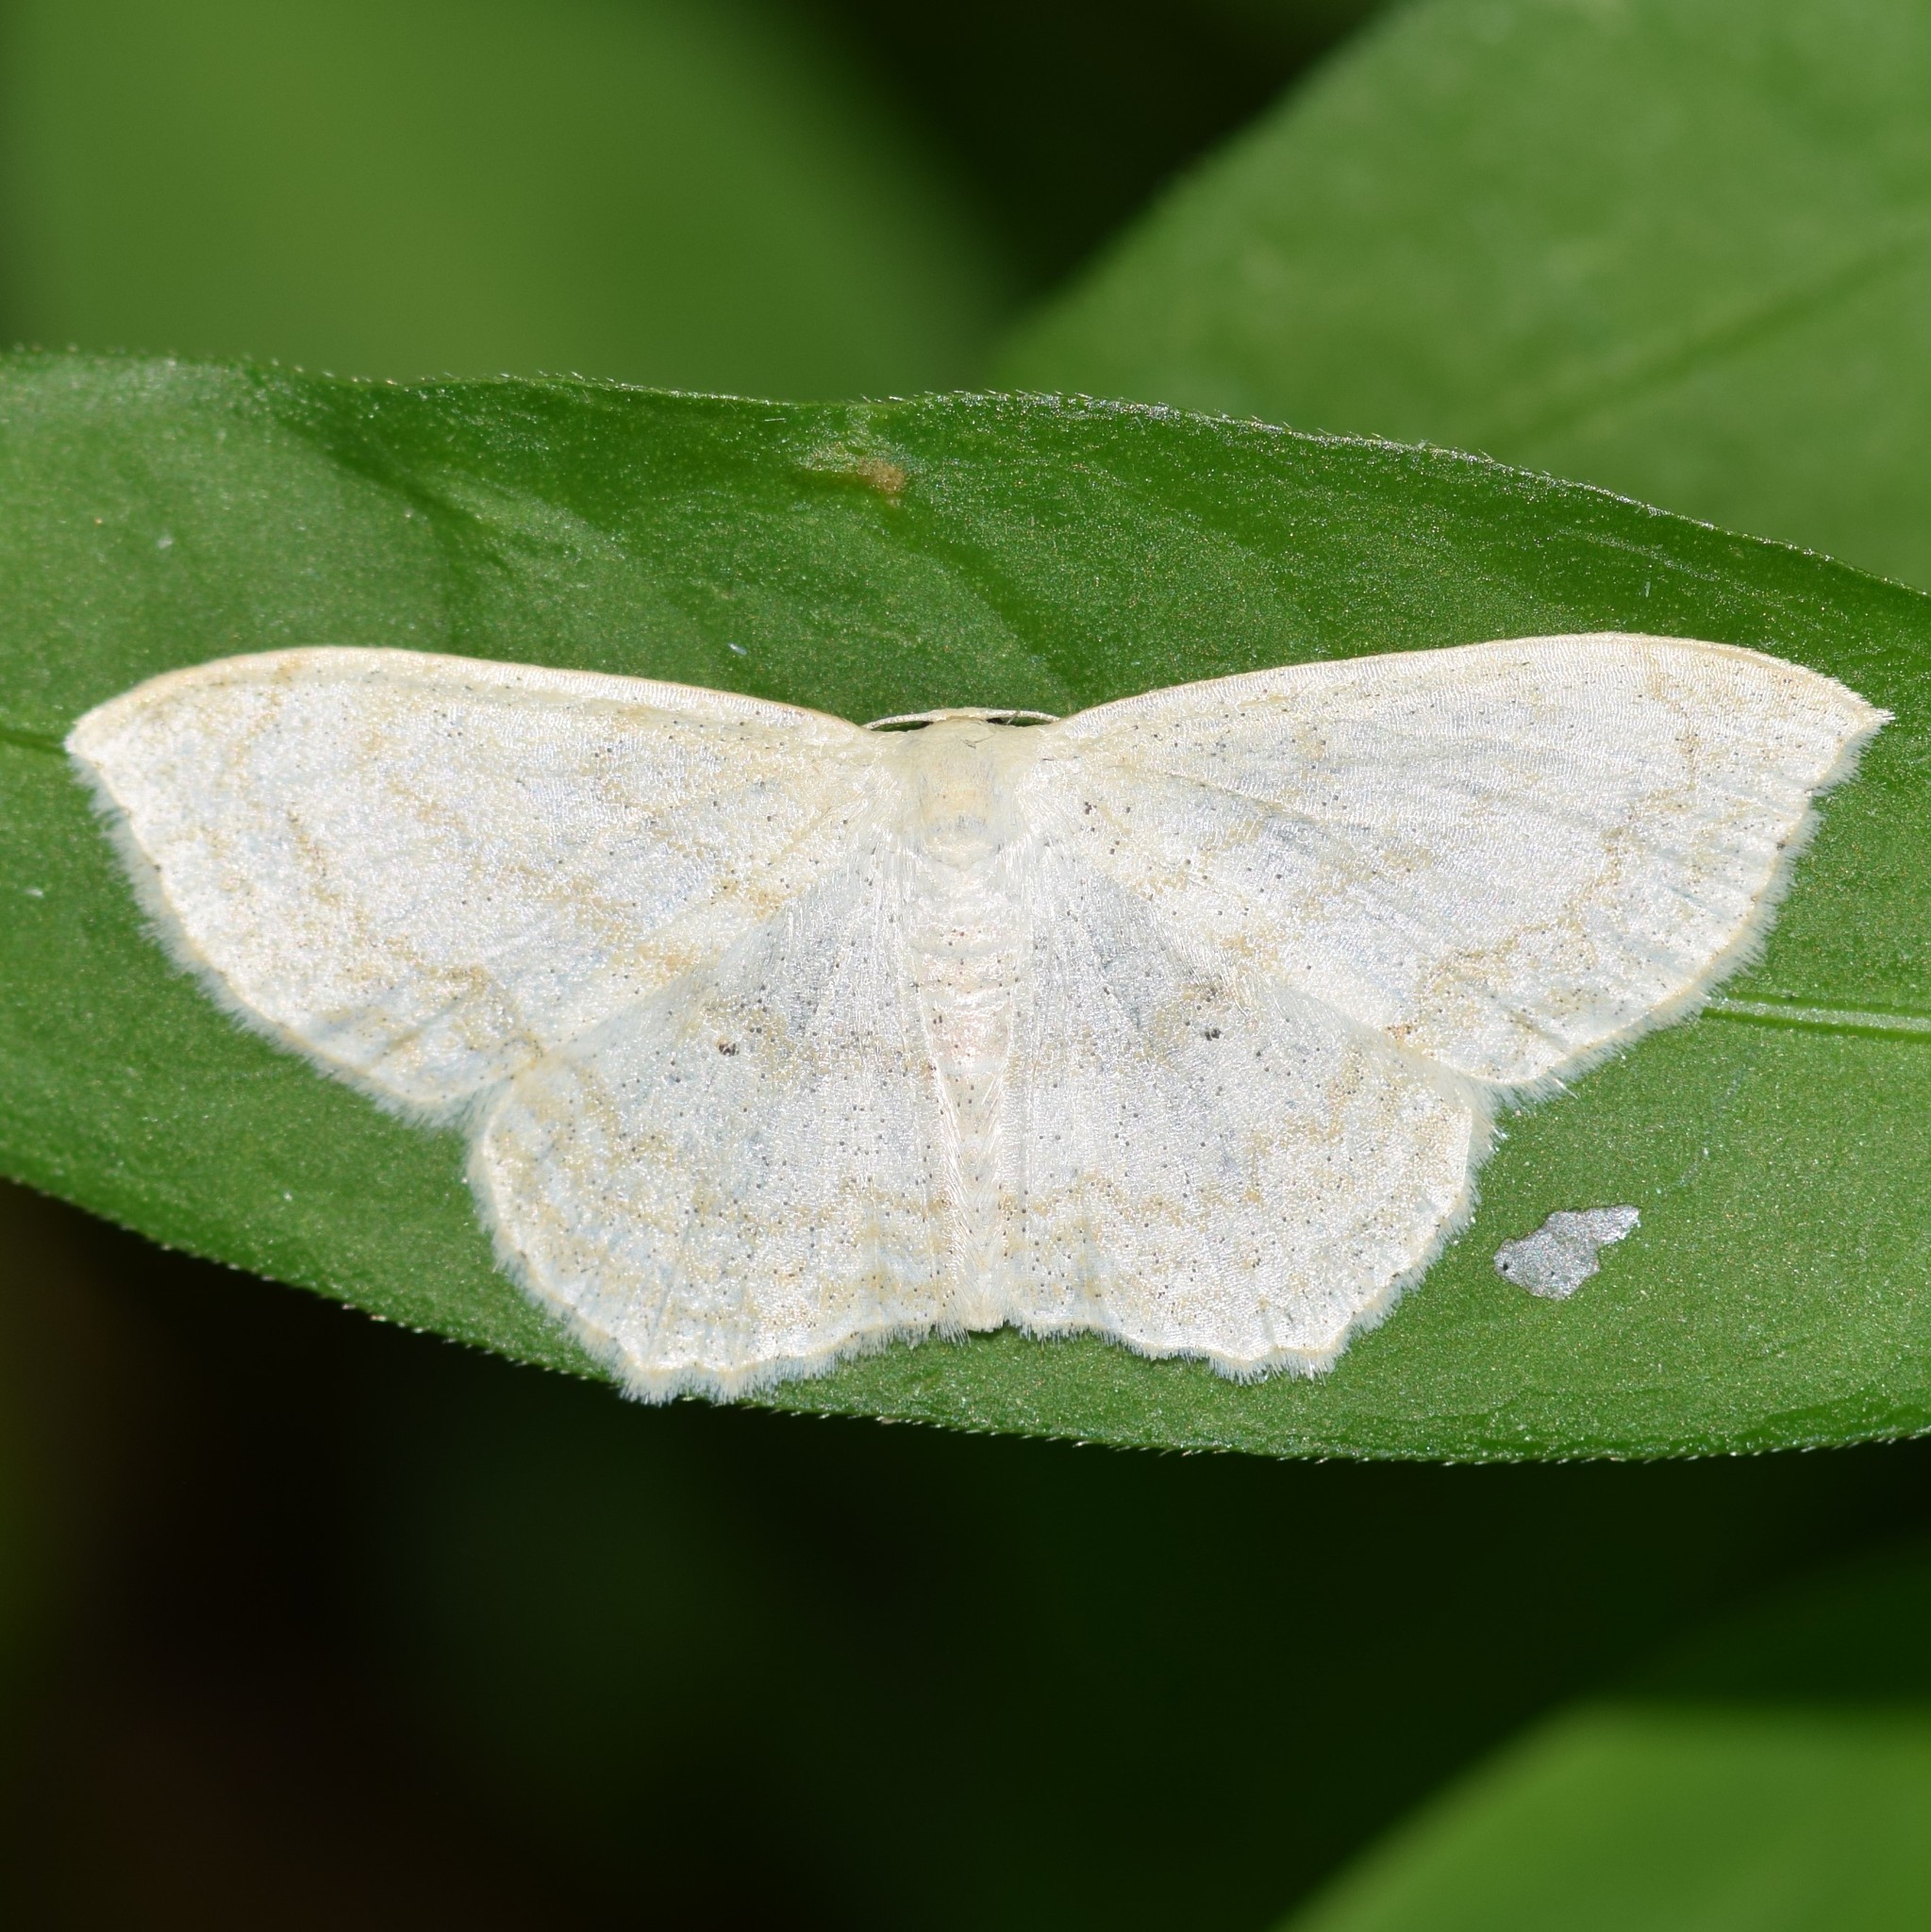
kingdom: Animalia
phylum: Arthropoda
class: Insecta
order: Lepidoptera
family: Geometridae
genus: Scopula
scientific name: Scopula limboundata
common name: Large lace border
